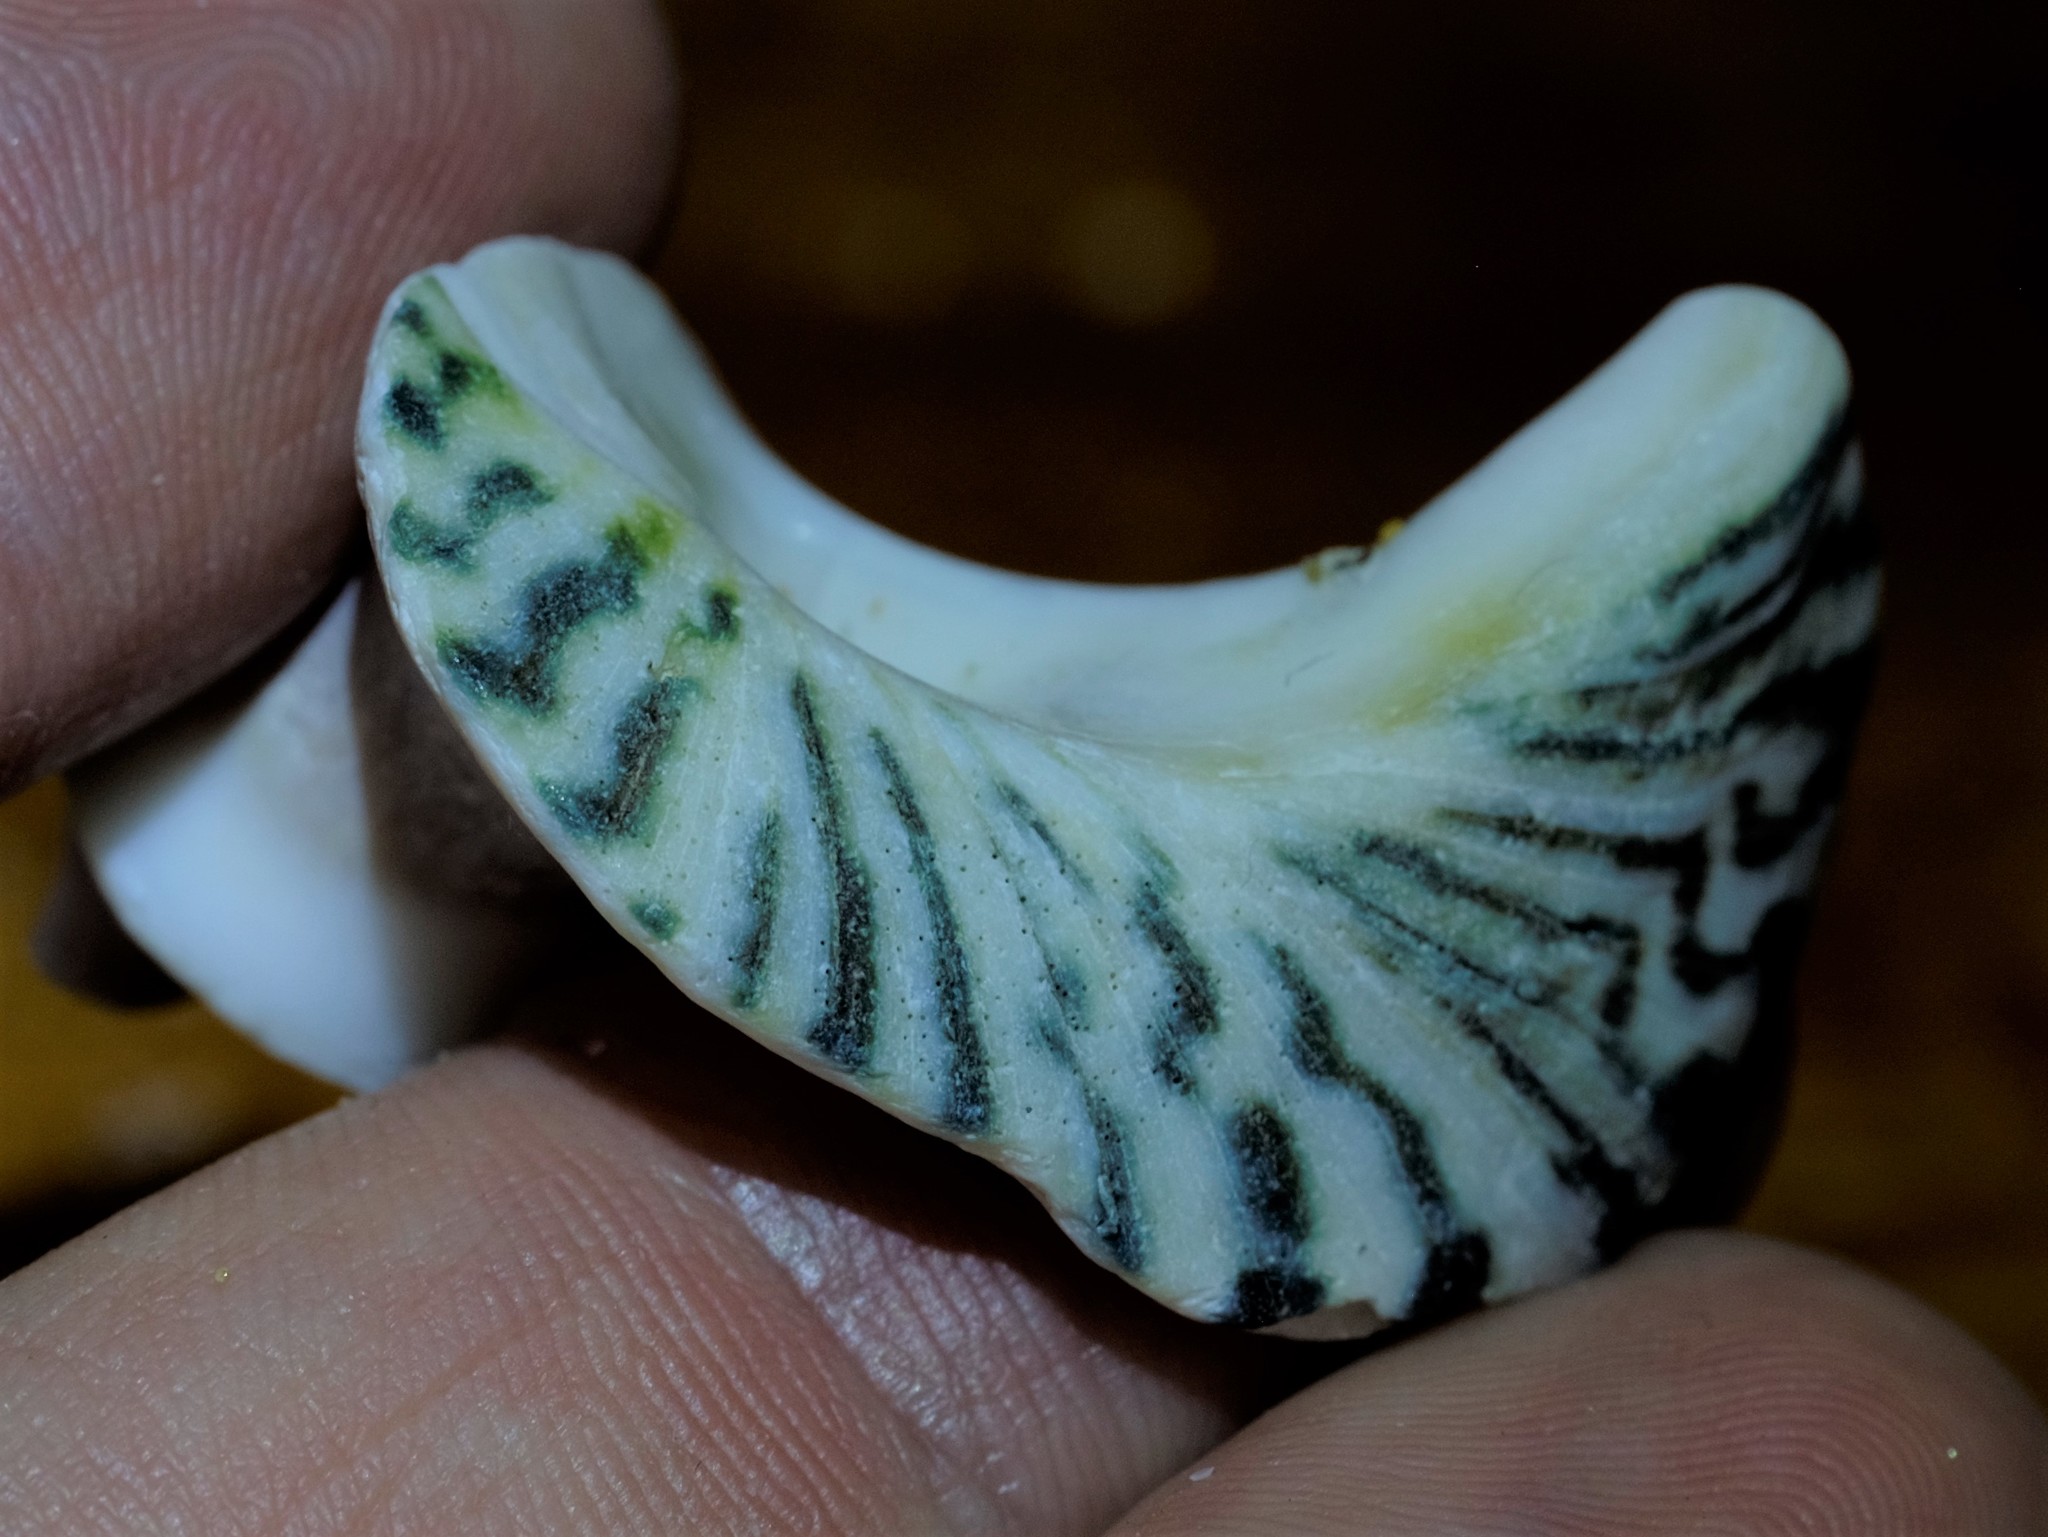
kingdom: Animalia
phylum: Mollusca
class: Gastropoda
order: Trochida
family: Turbinidae
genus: Lunella
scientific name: Lunella undulata
